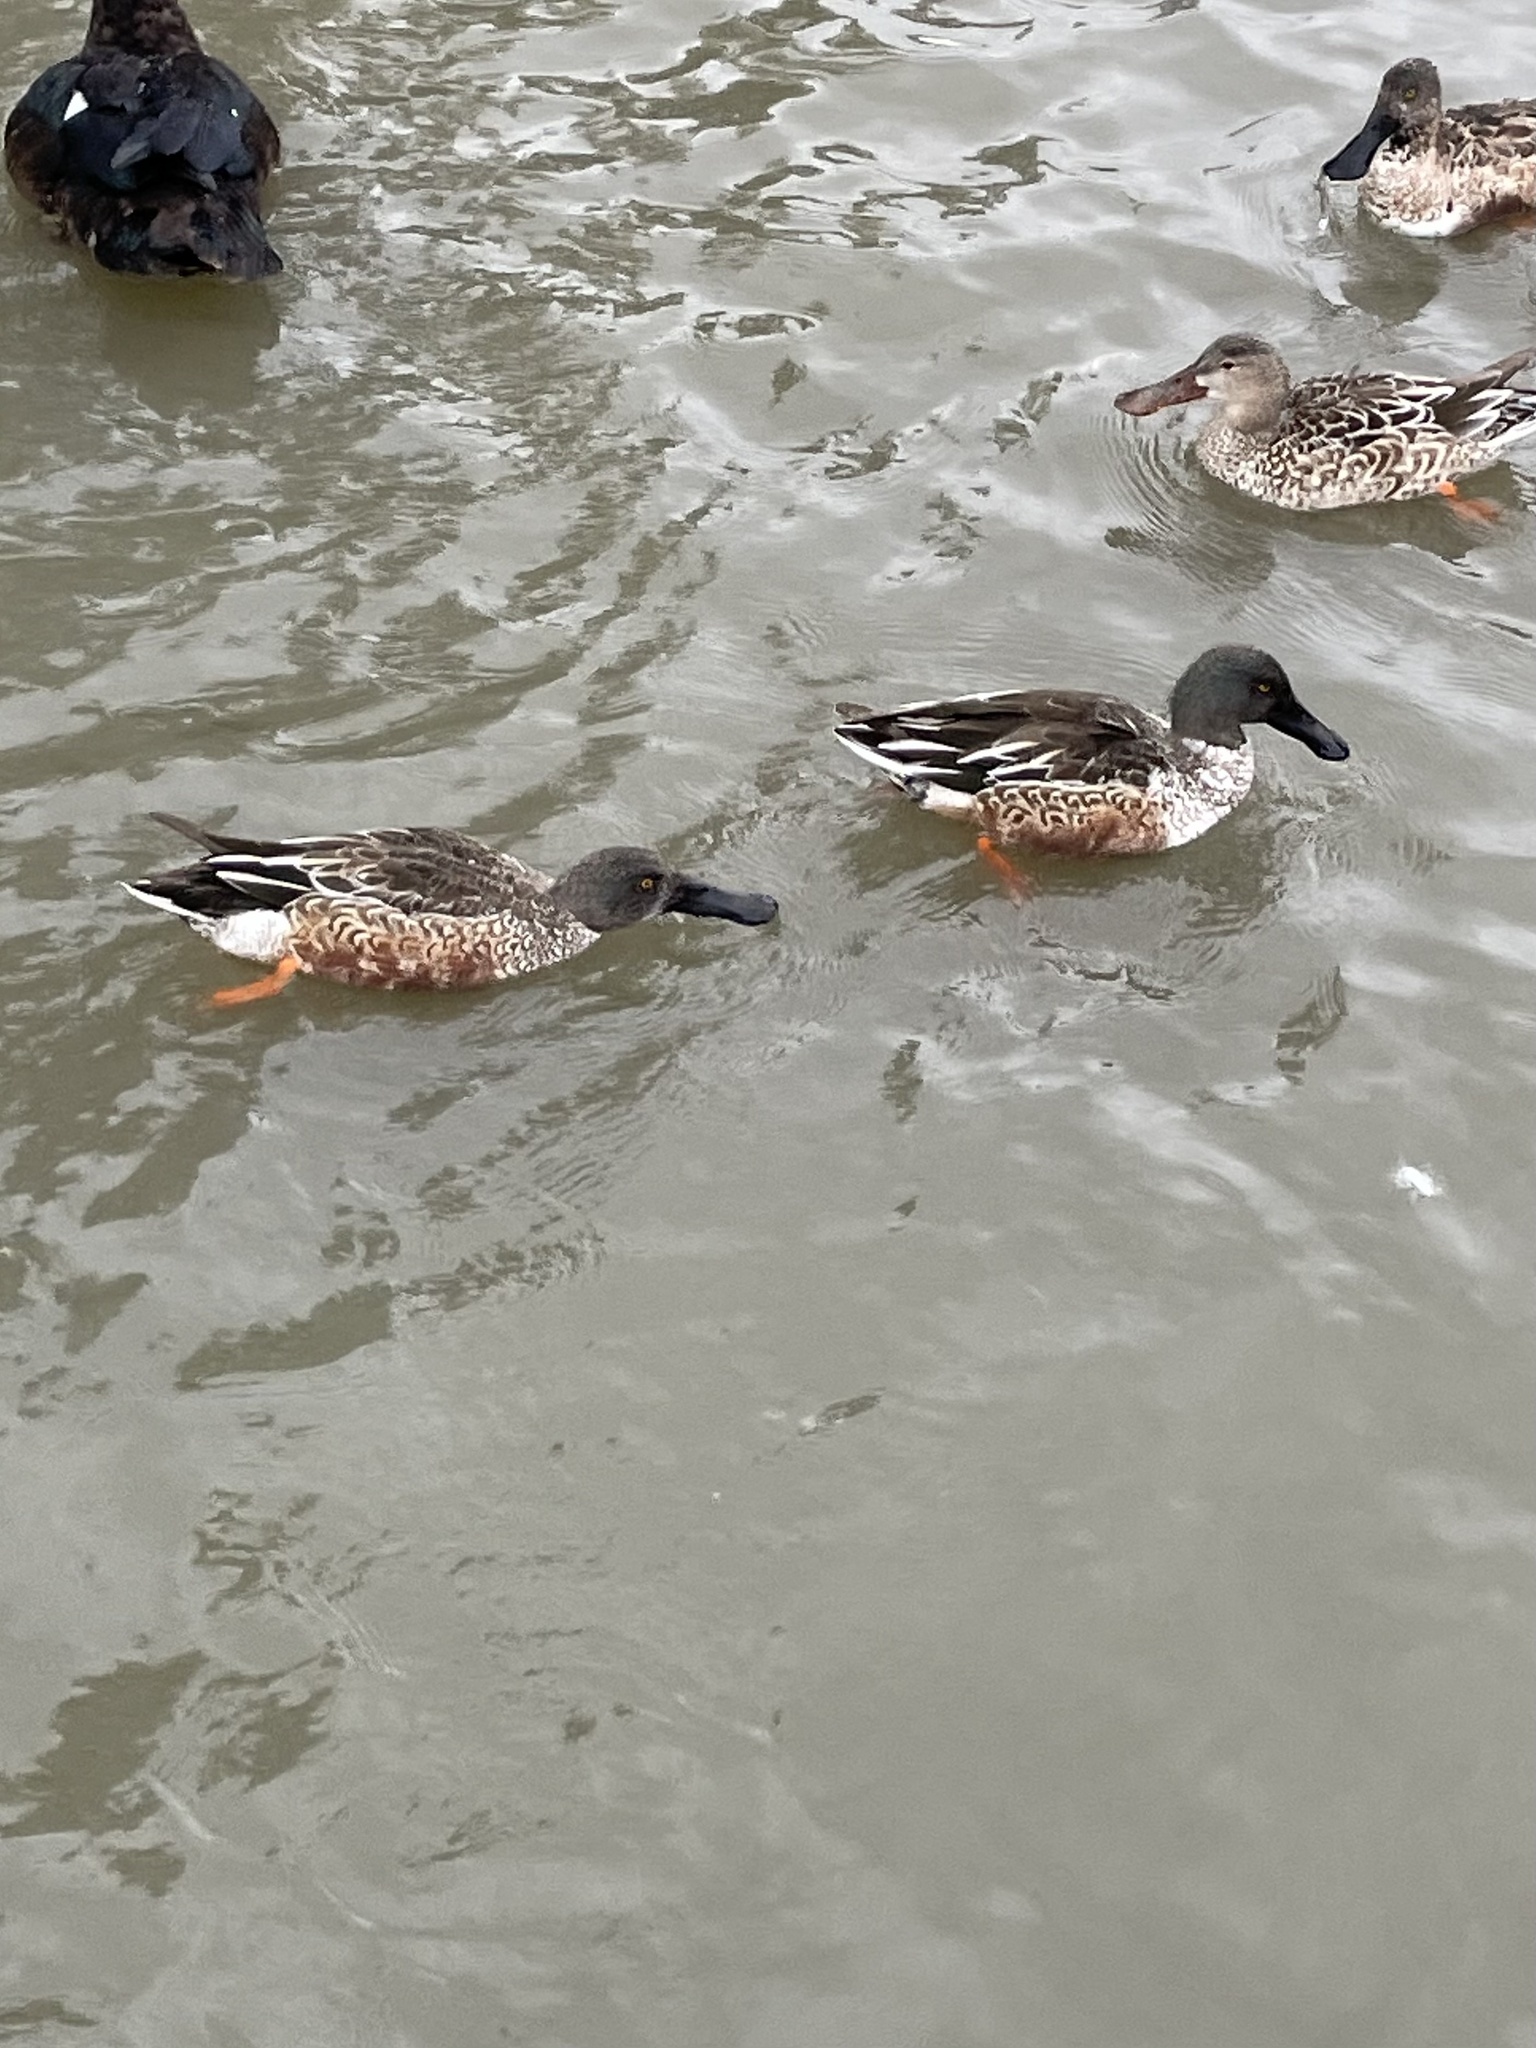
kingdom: Animalia
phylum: Chordata
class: Aves
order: Anseriformes
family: Anatidae
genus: Spatula
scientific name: Spatula clypeata
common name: Northern shoveler
